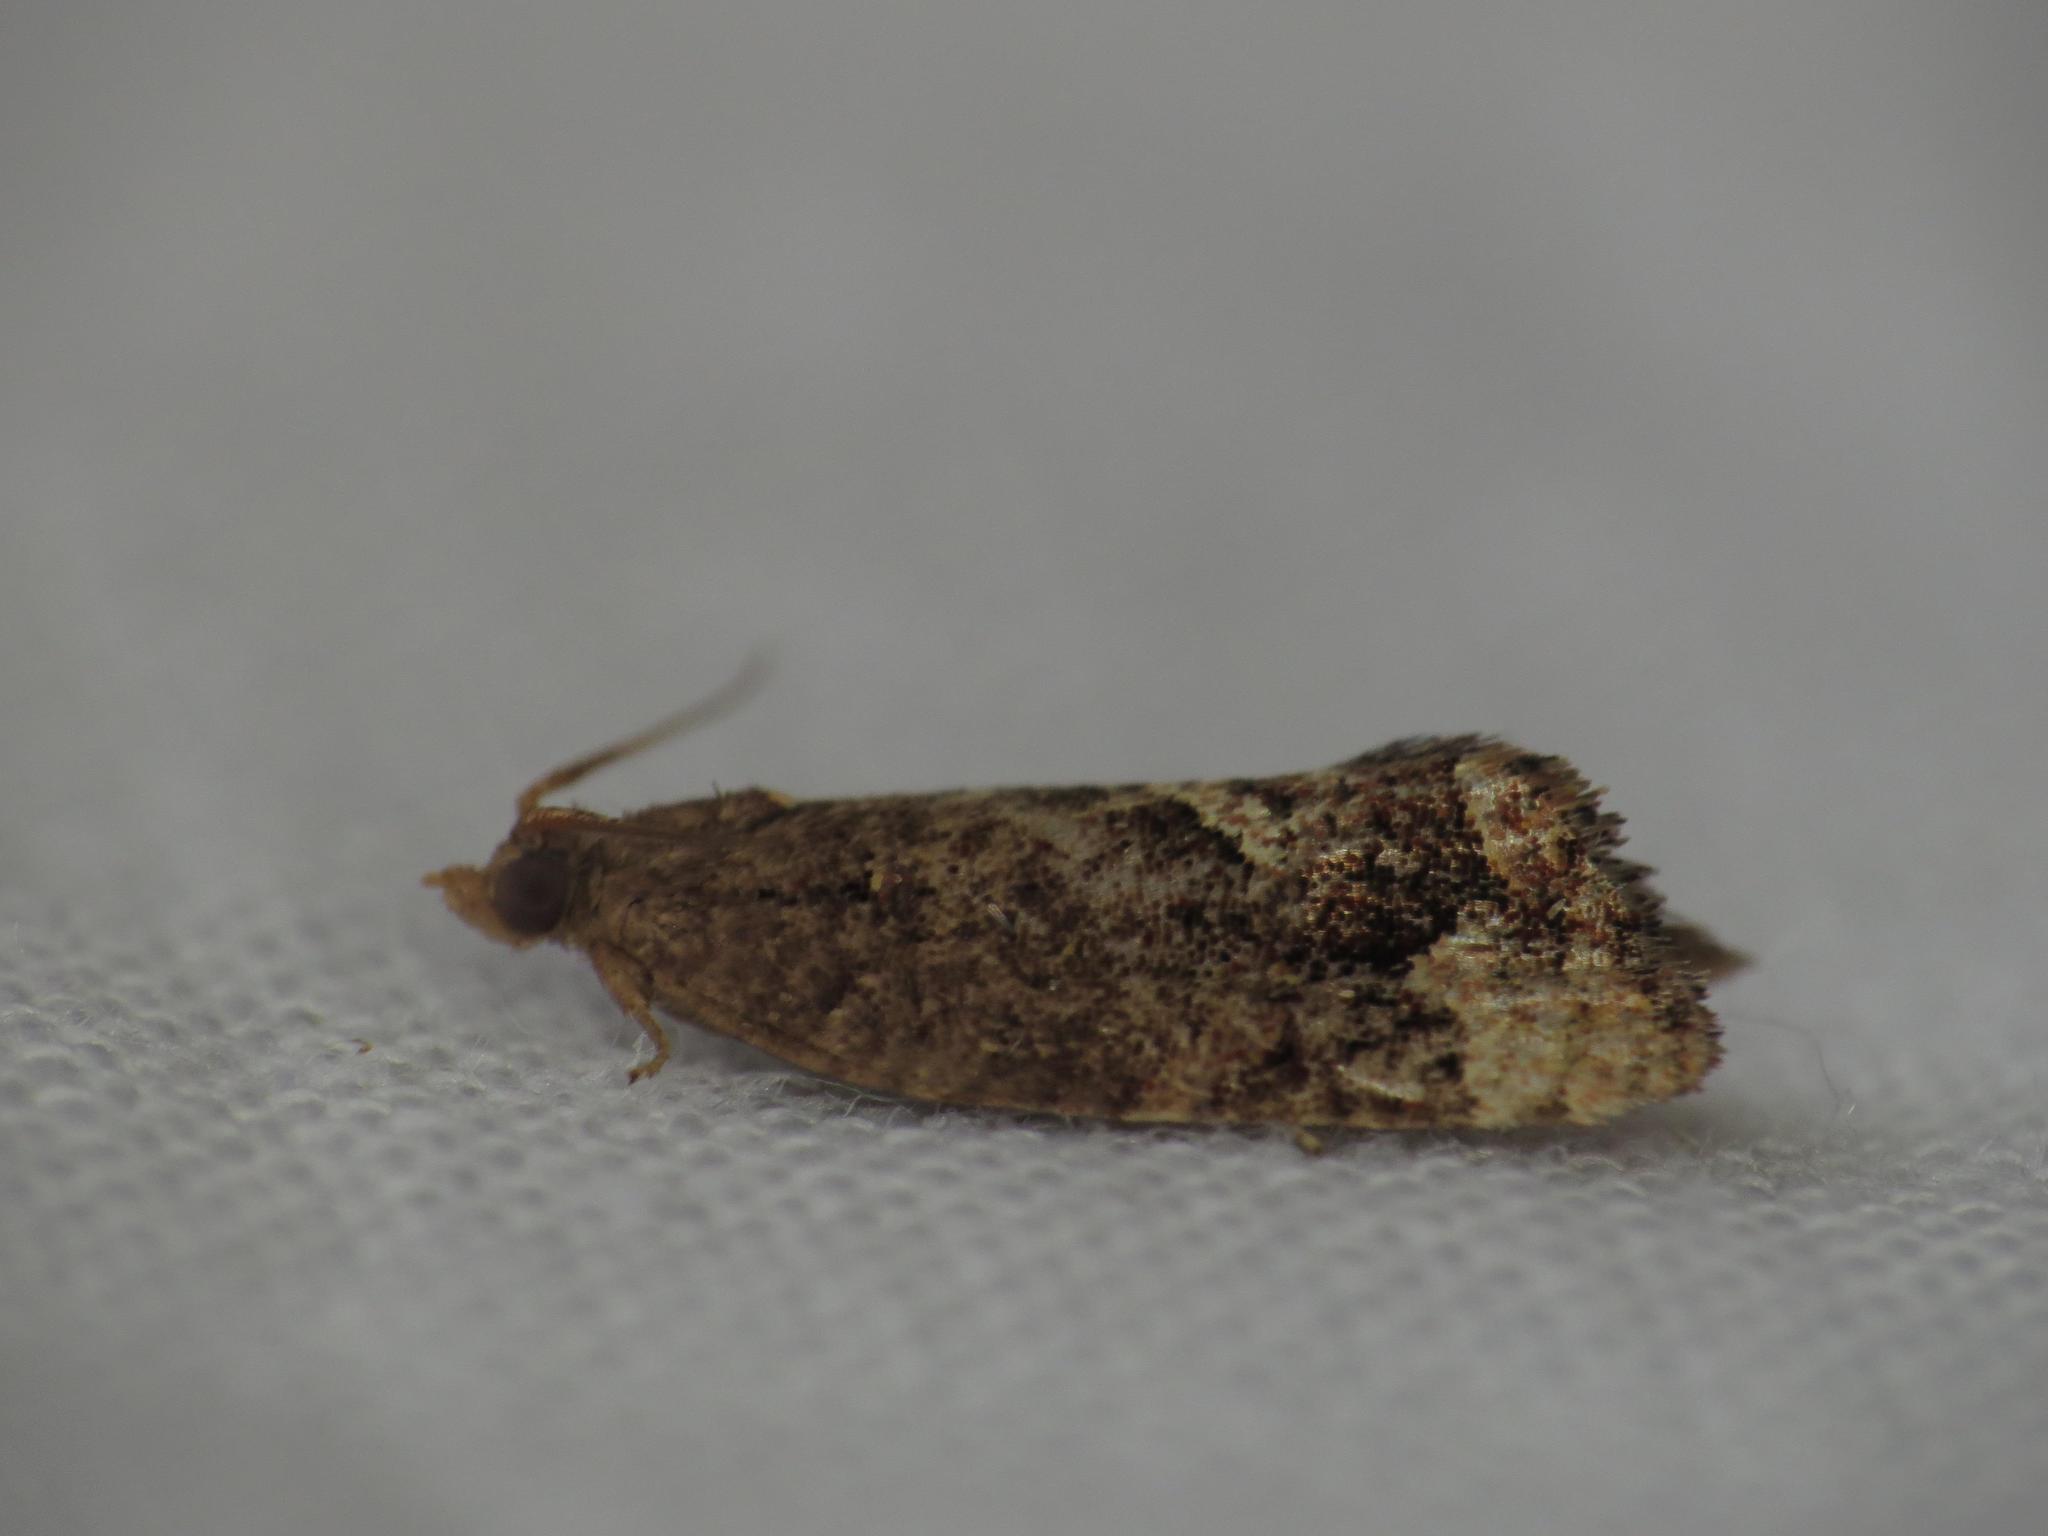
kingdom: Animalia
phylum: Arthropoda
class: Insecta
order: Lepidoptera
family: Tortricidae
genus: Epitymbia
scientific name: Epitymbia alaudana
